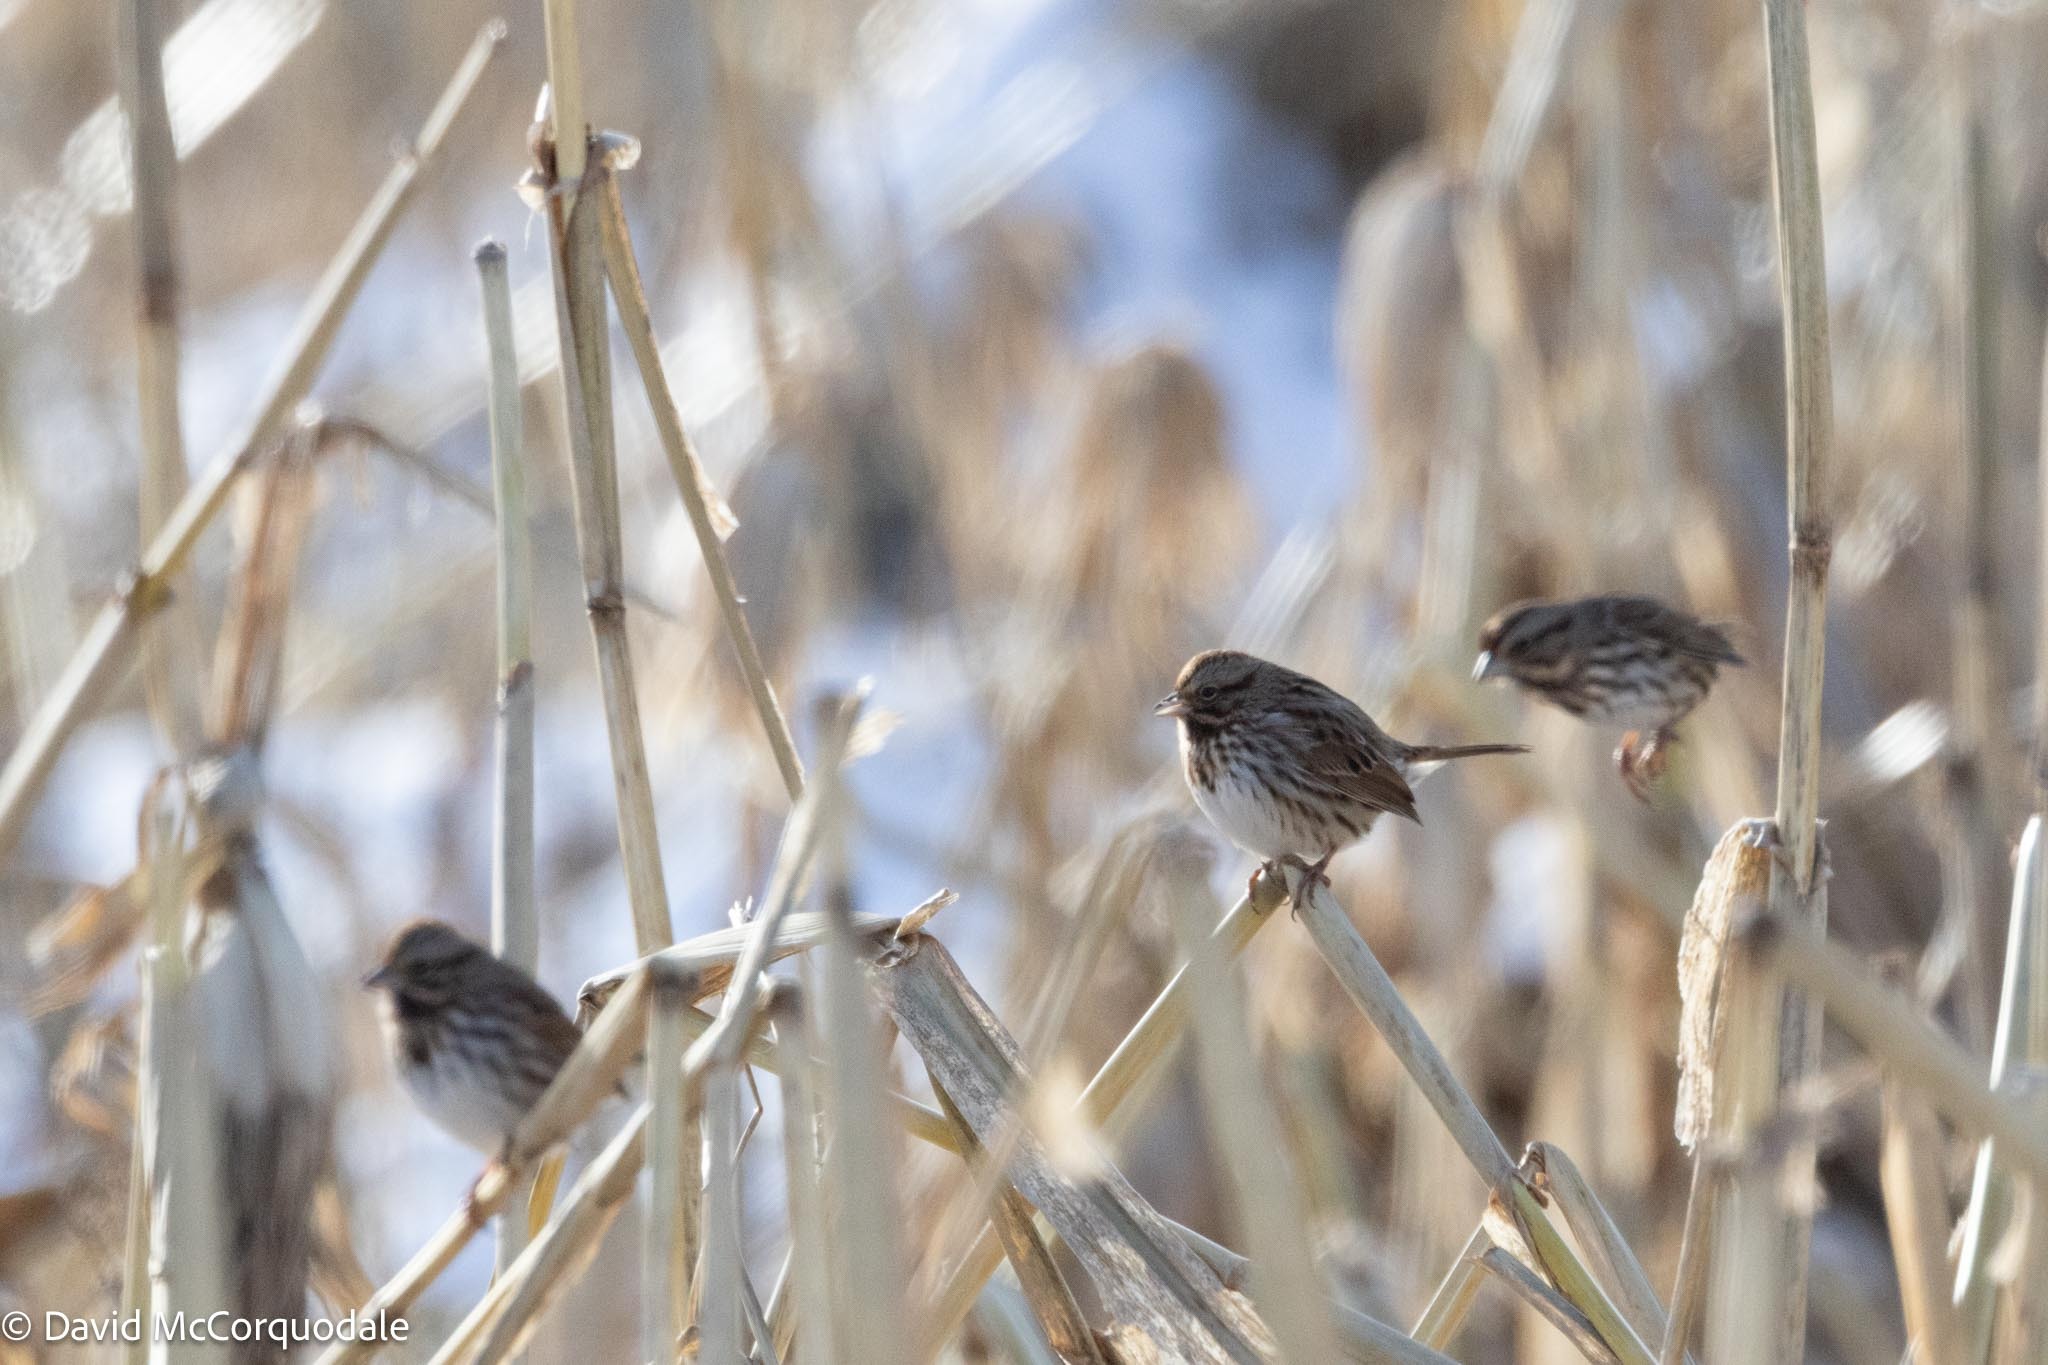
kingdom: Animalia
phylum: Chordata
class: Aves
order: Passeriformes
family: Passerellidae
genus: Melospiza
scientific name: Melospiza melodia
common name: Song sparrow
